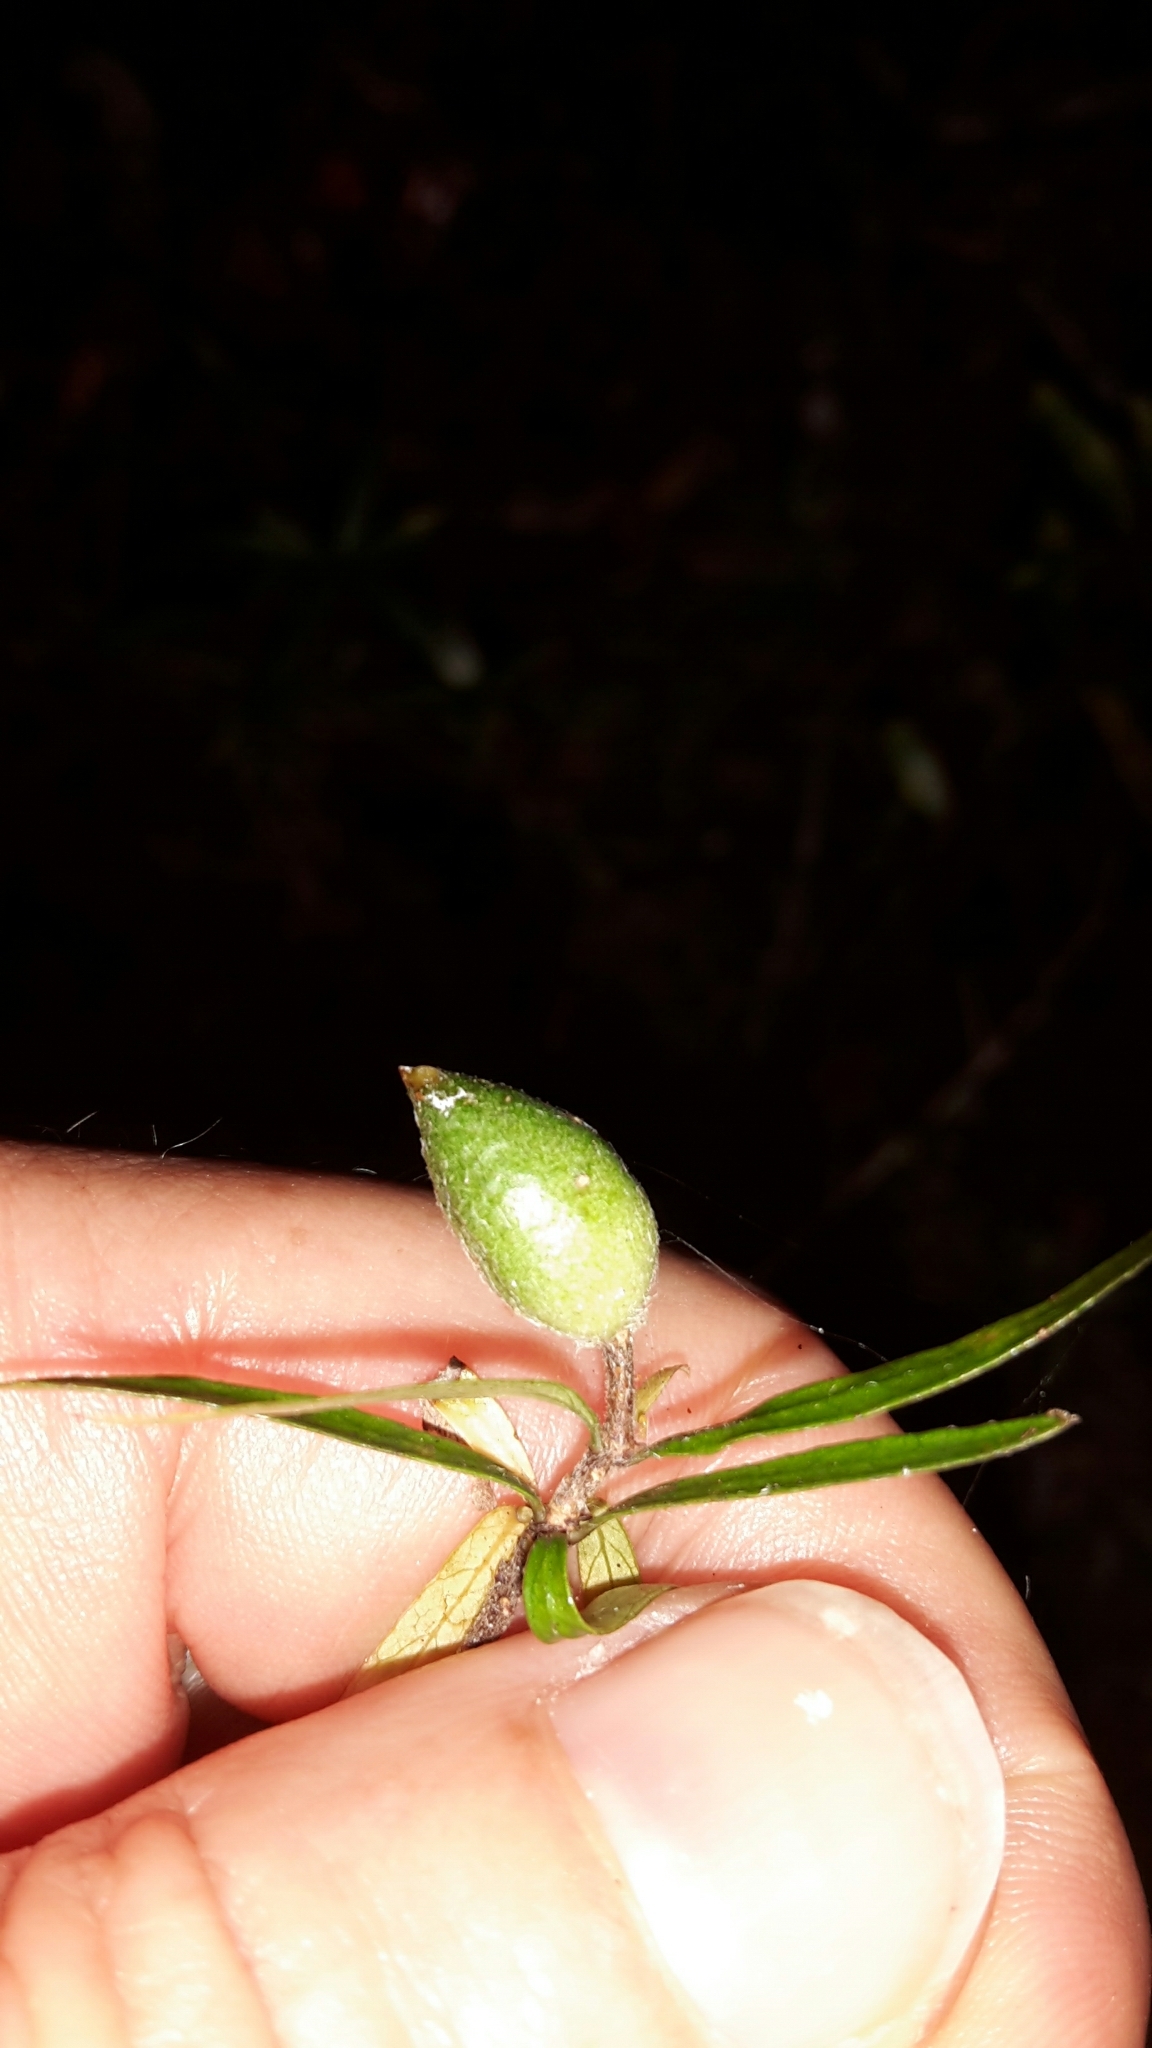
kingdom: Plantae
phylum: Tracheophyta
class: Magnoliopsida
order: Apiales
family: Pittosporaceae
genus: Pittosporum
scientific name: Pittosporum pimeleoides
